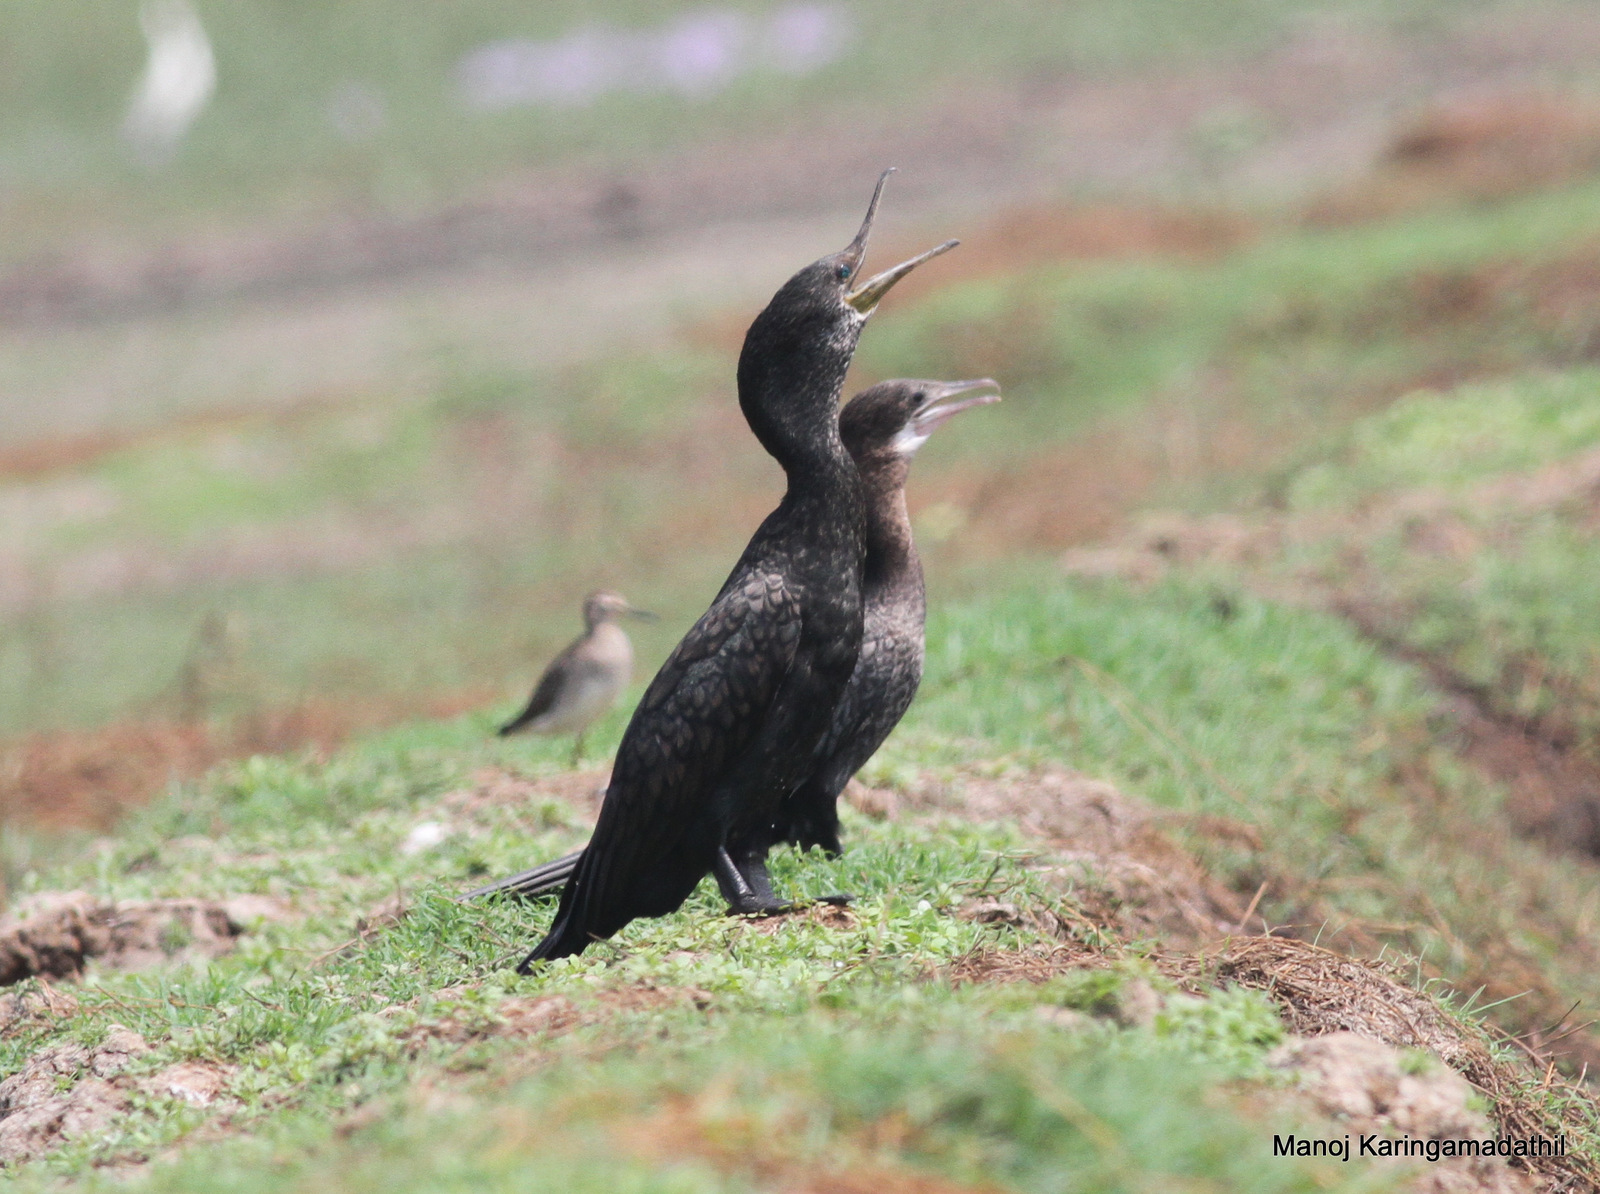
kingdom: Animalia
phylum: Chordata
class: Aves
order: Suliformes
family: Phalacrocoracidae
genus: Microcarbo
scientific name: Microcarbo niger
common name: Little cormorant
